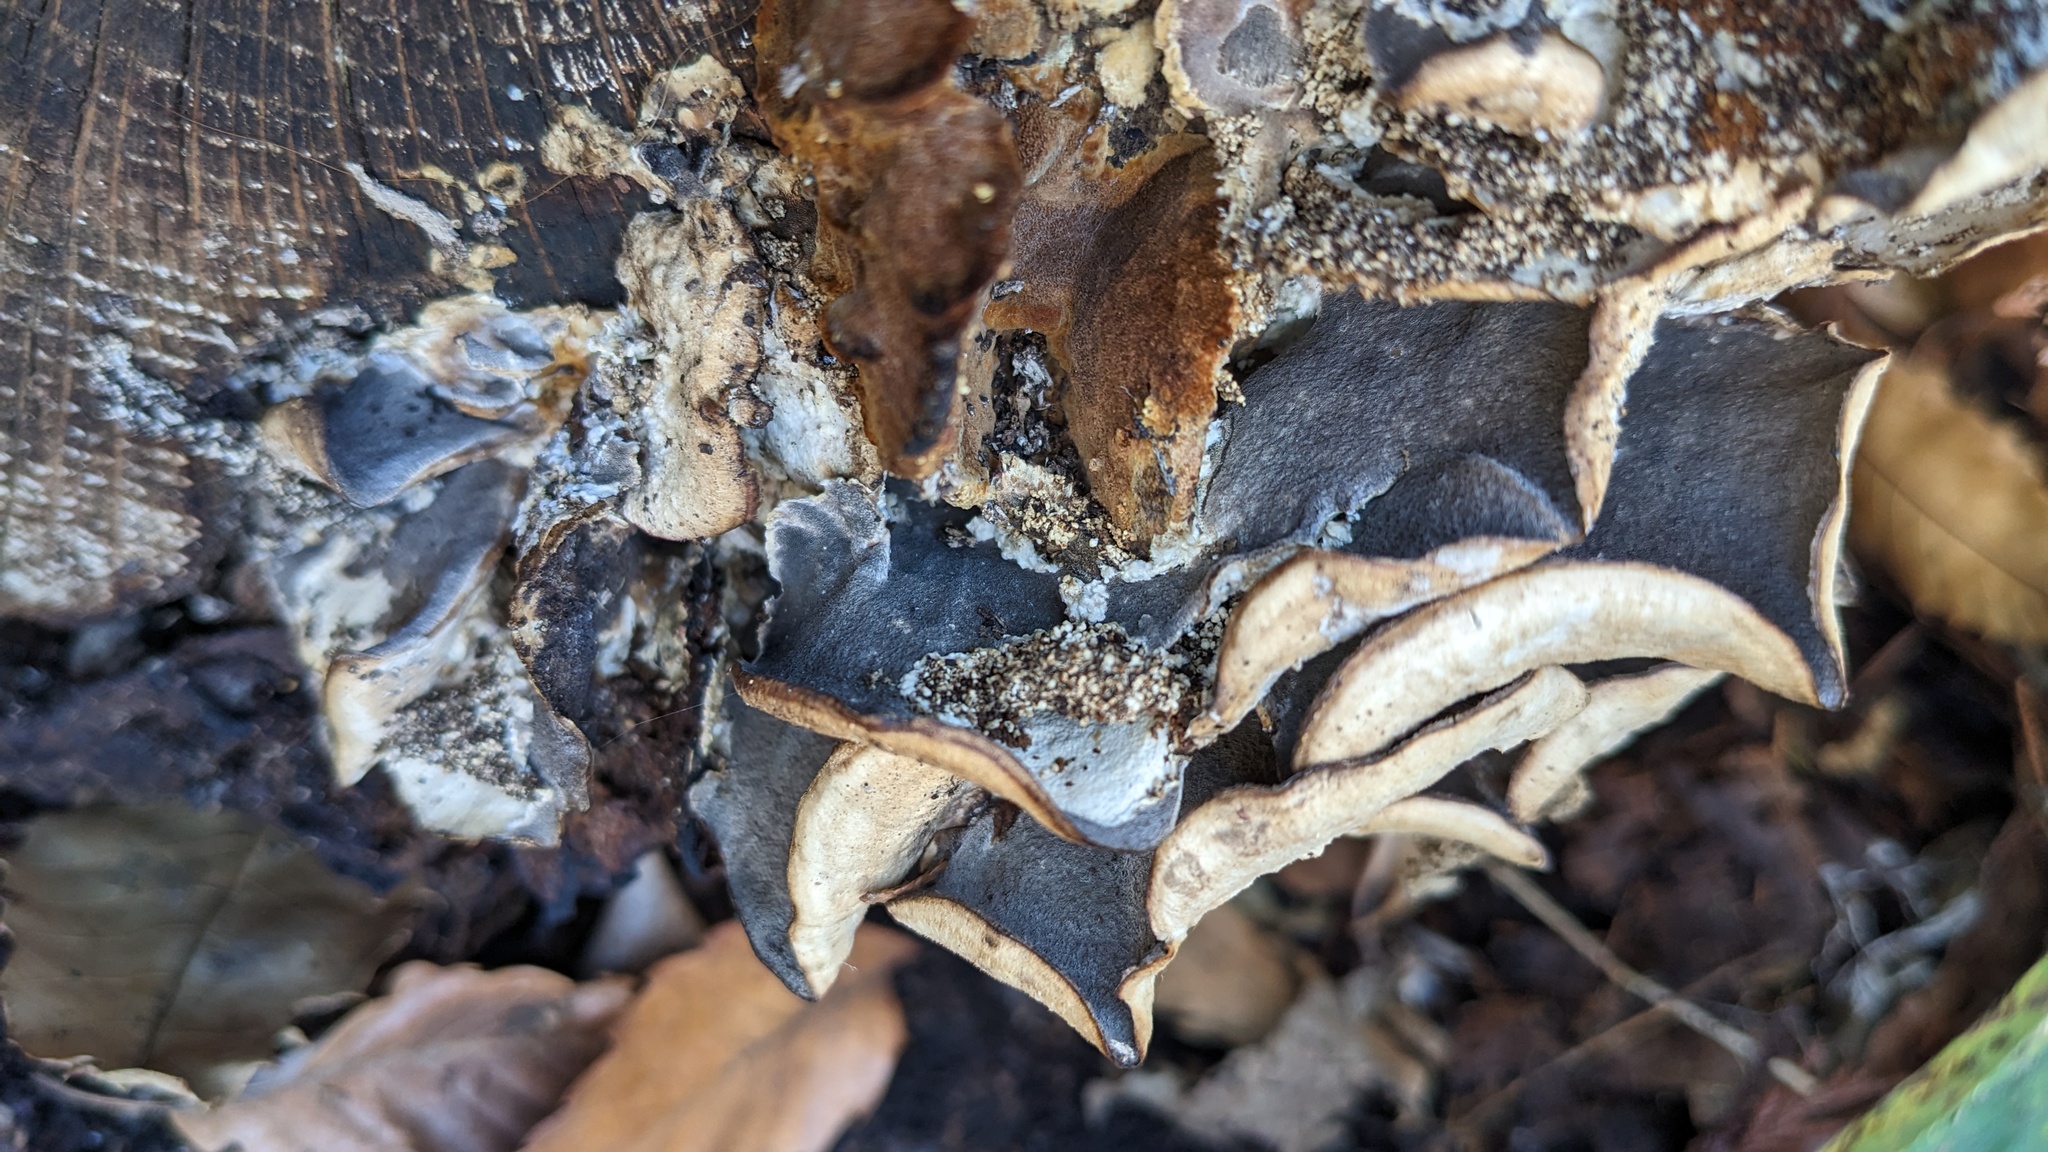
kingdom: Fungi
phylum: Basidiomycota
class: Agaricomycetes
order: Polyporales
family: Phanerochaetaceae
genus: Bjerkandera
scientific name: Bjerkandera adusta
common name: Smoky bracket
